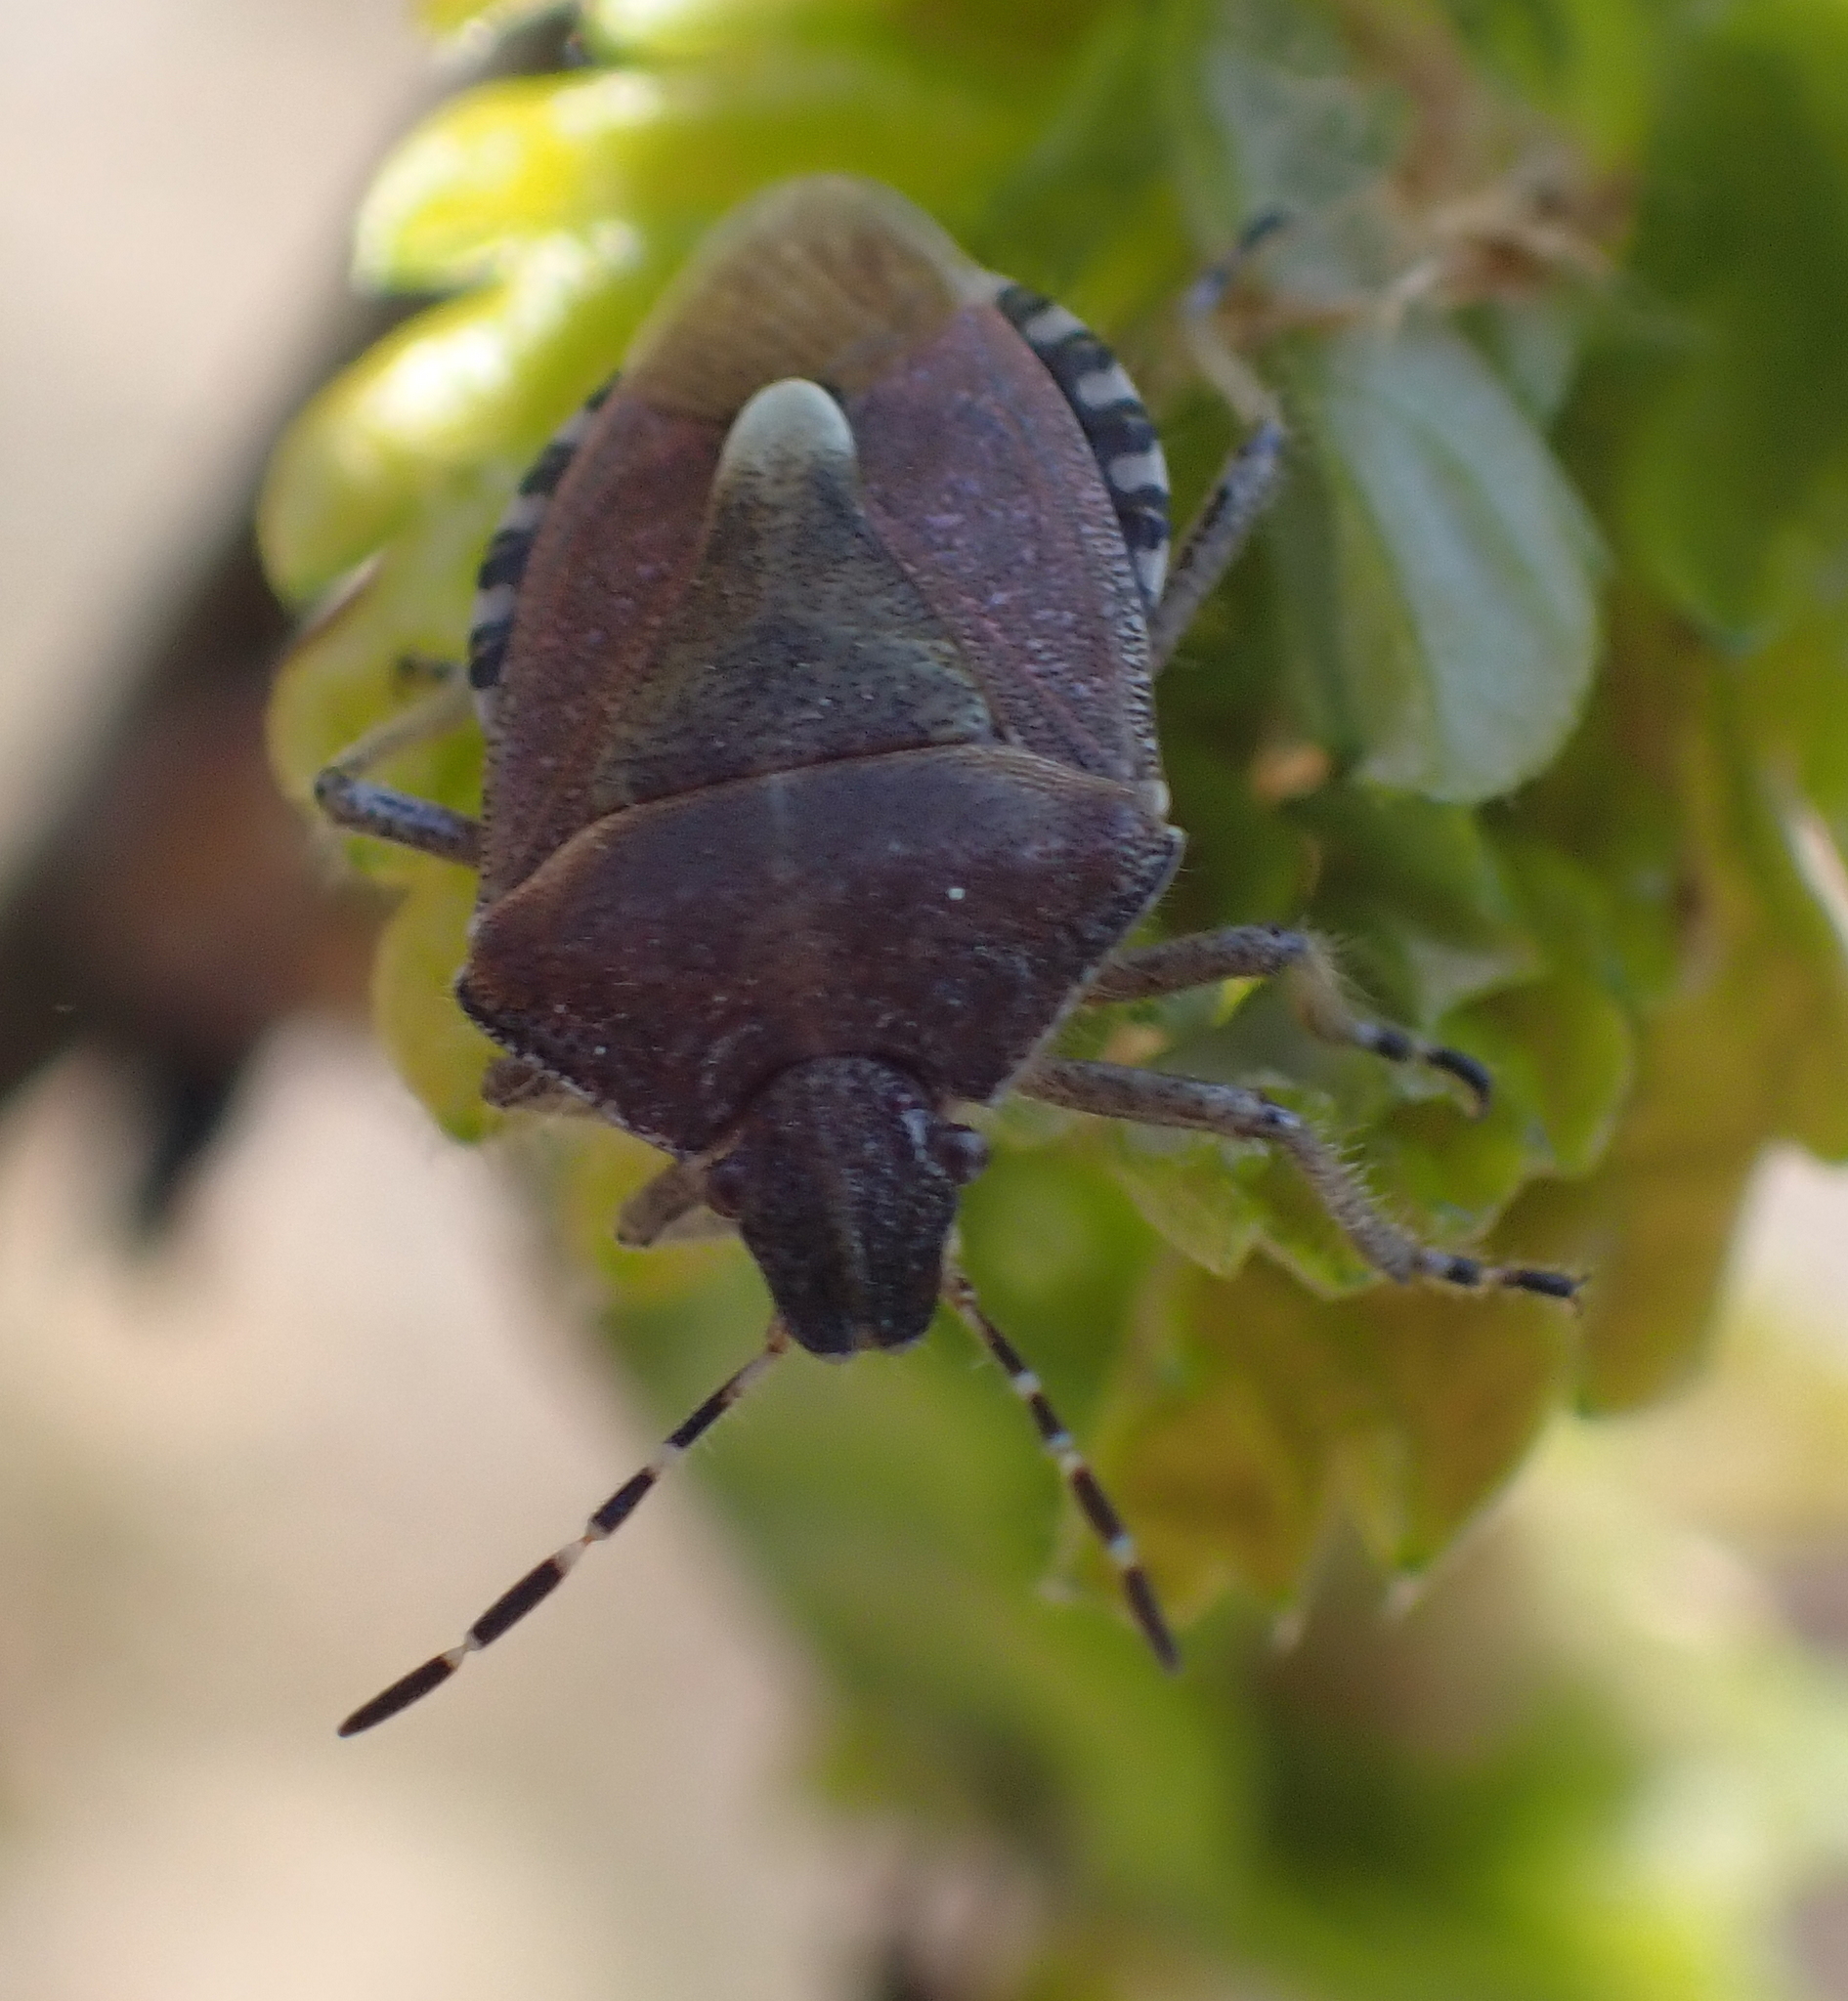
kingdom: Animalia
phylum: Arthropoda
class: Insecta
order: Hemiptera
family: Pentatomidae
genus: Dolycoris
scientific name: Dolycoris baccarum
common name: Sloe bug
